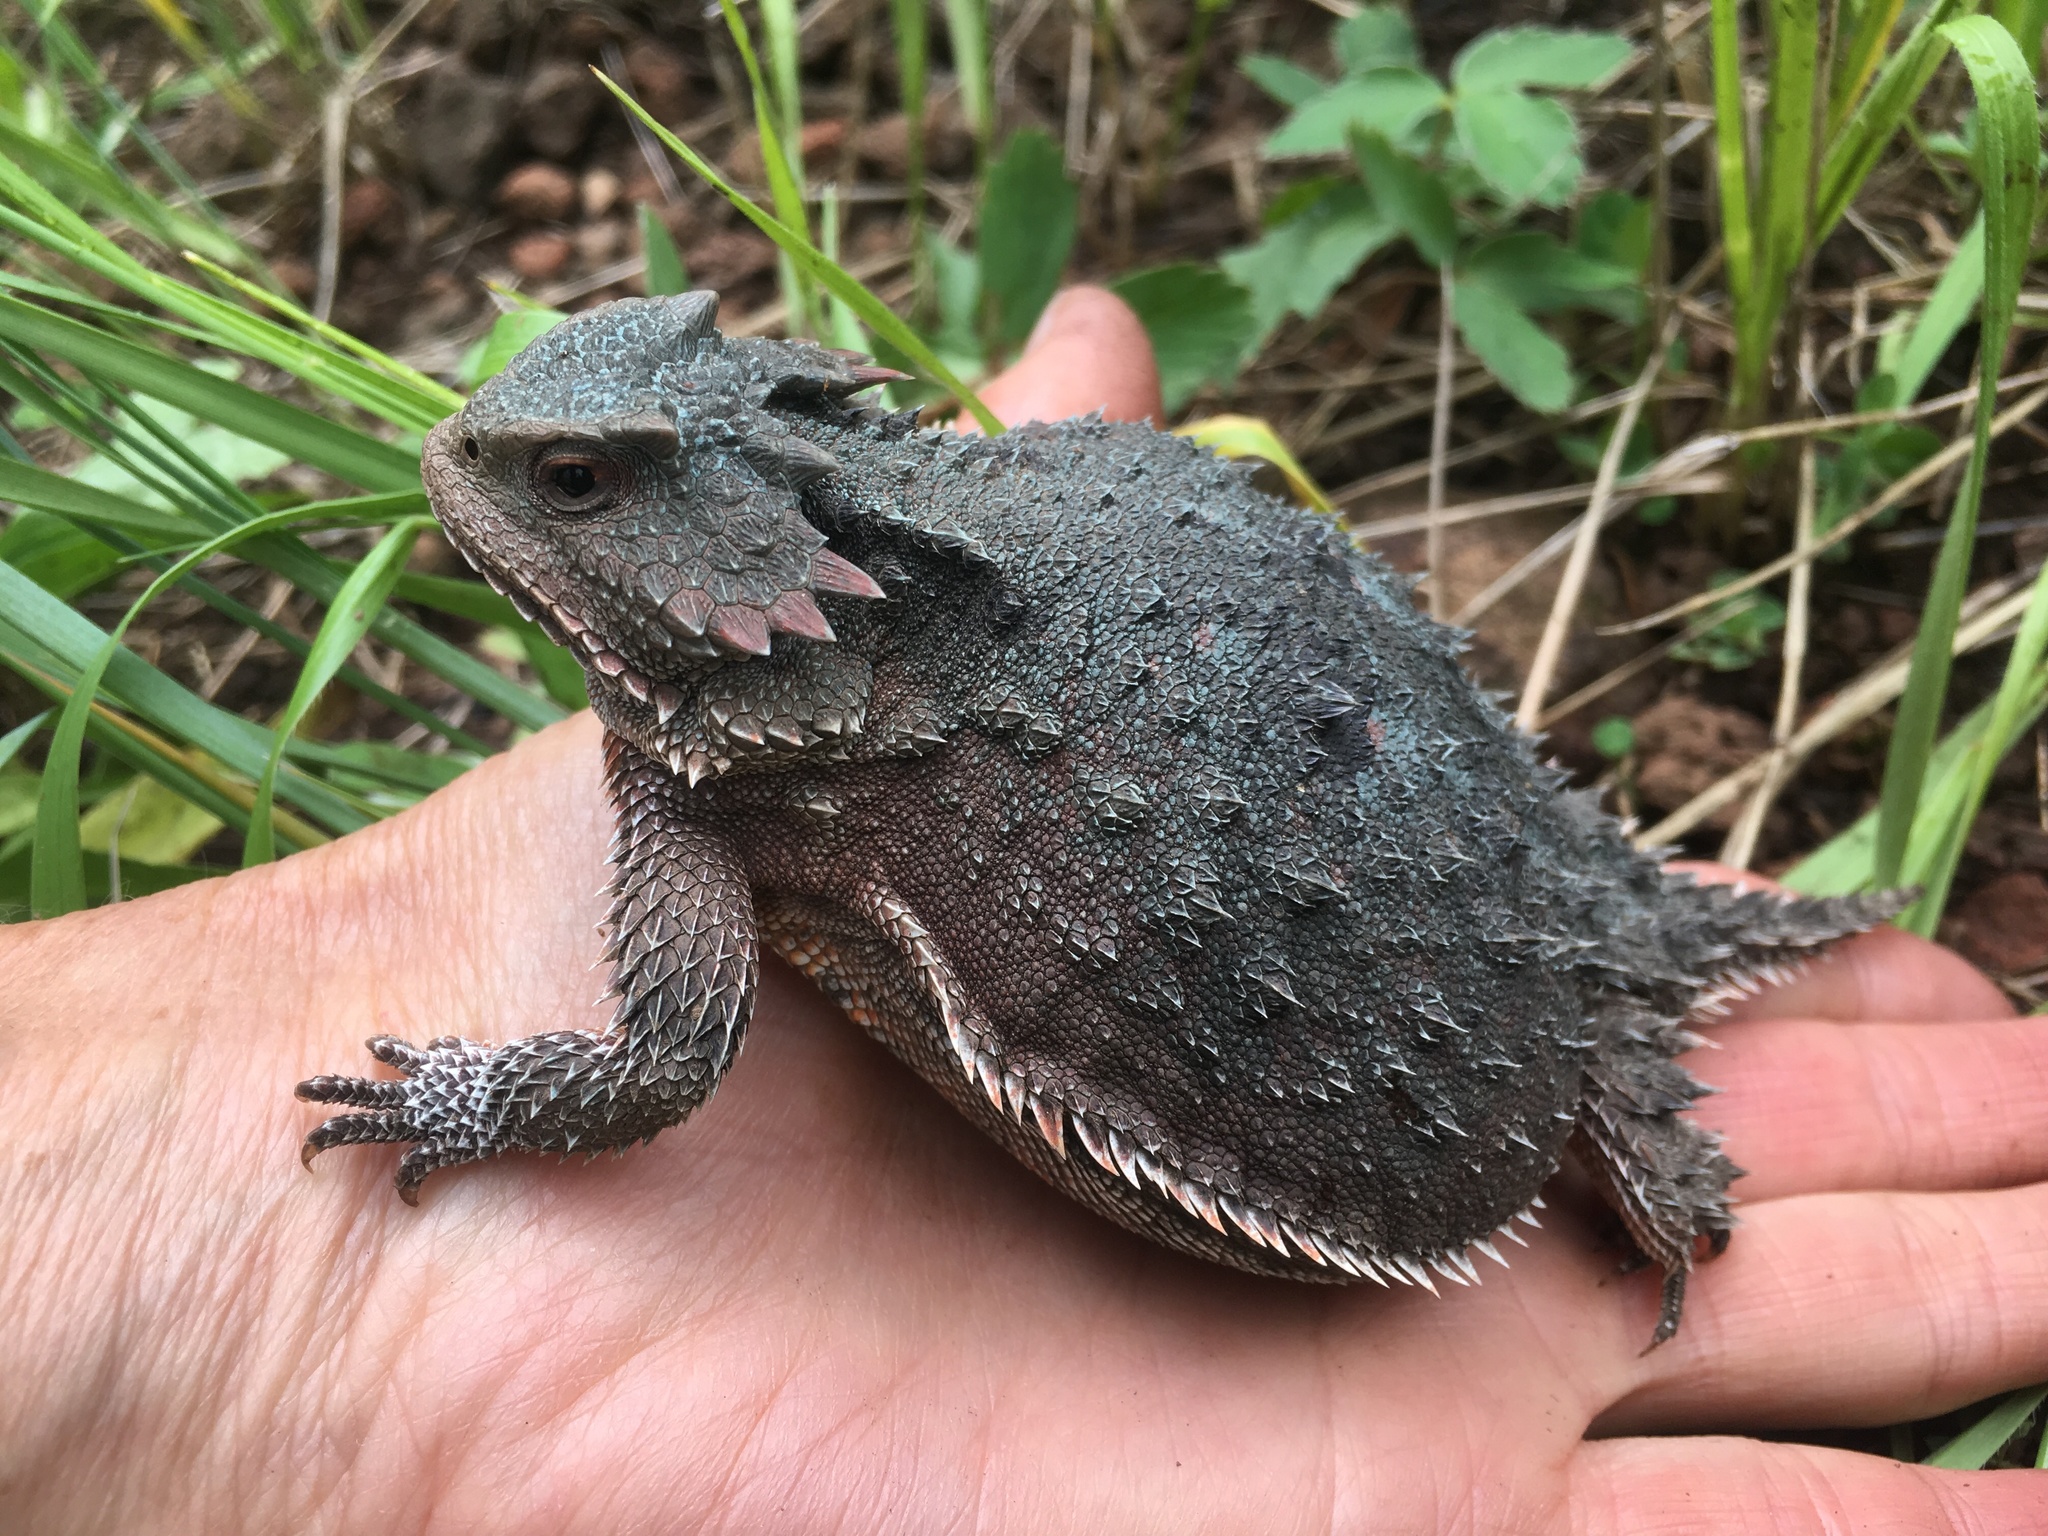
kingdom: Animalia
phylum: Chordata
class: Squamata
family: Phrynosomatidae
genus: Phrynosoma
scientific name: Phrynosoma hernandesi
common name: Greater short-horned lizard
